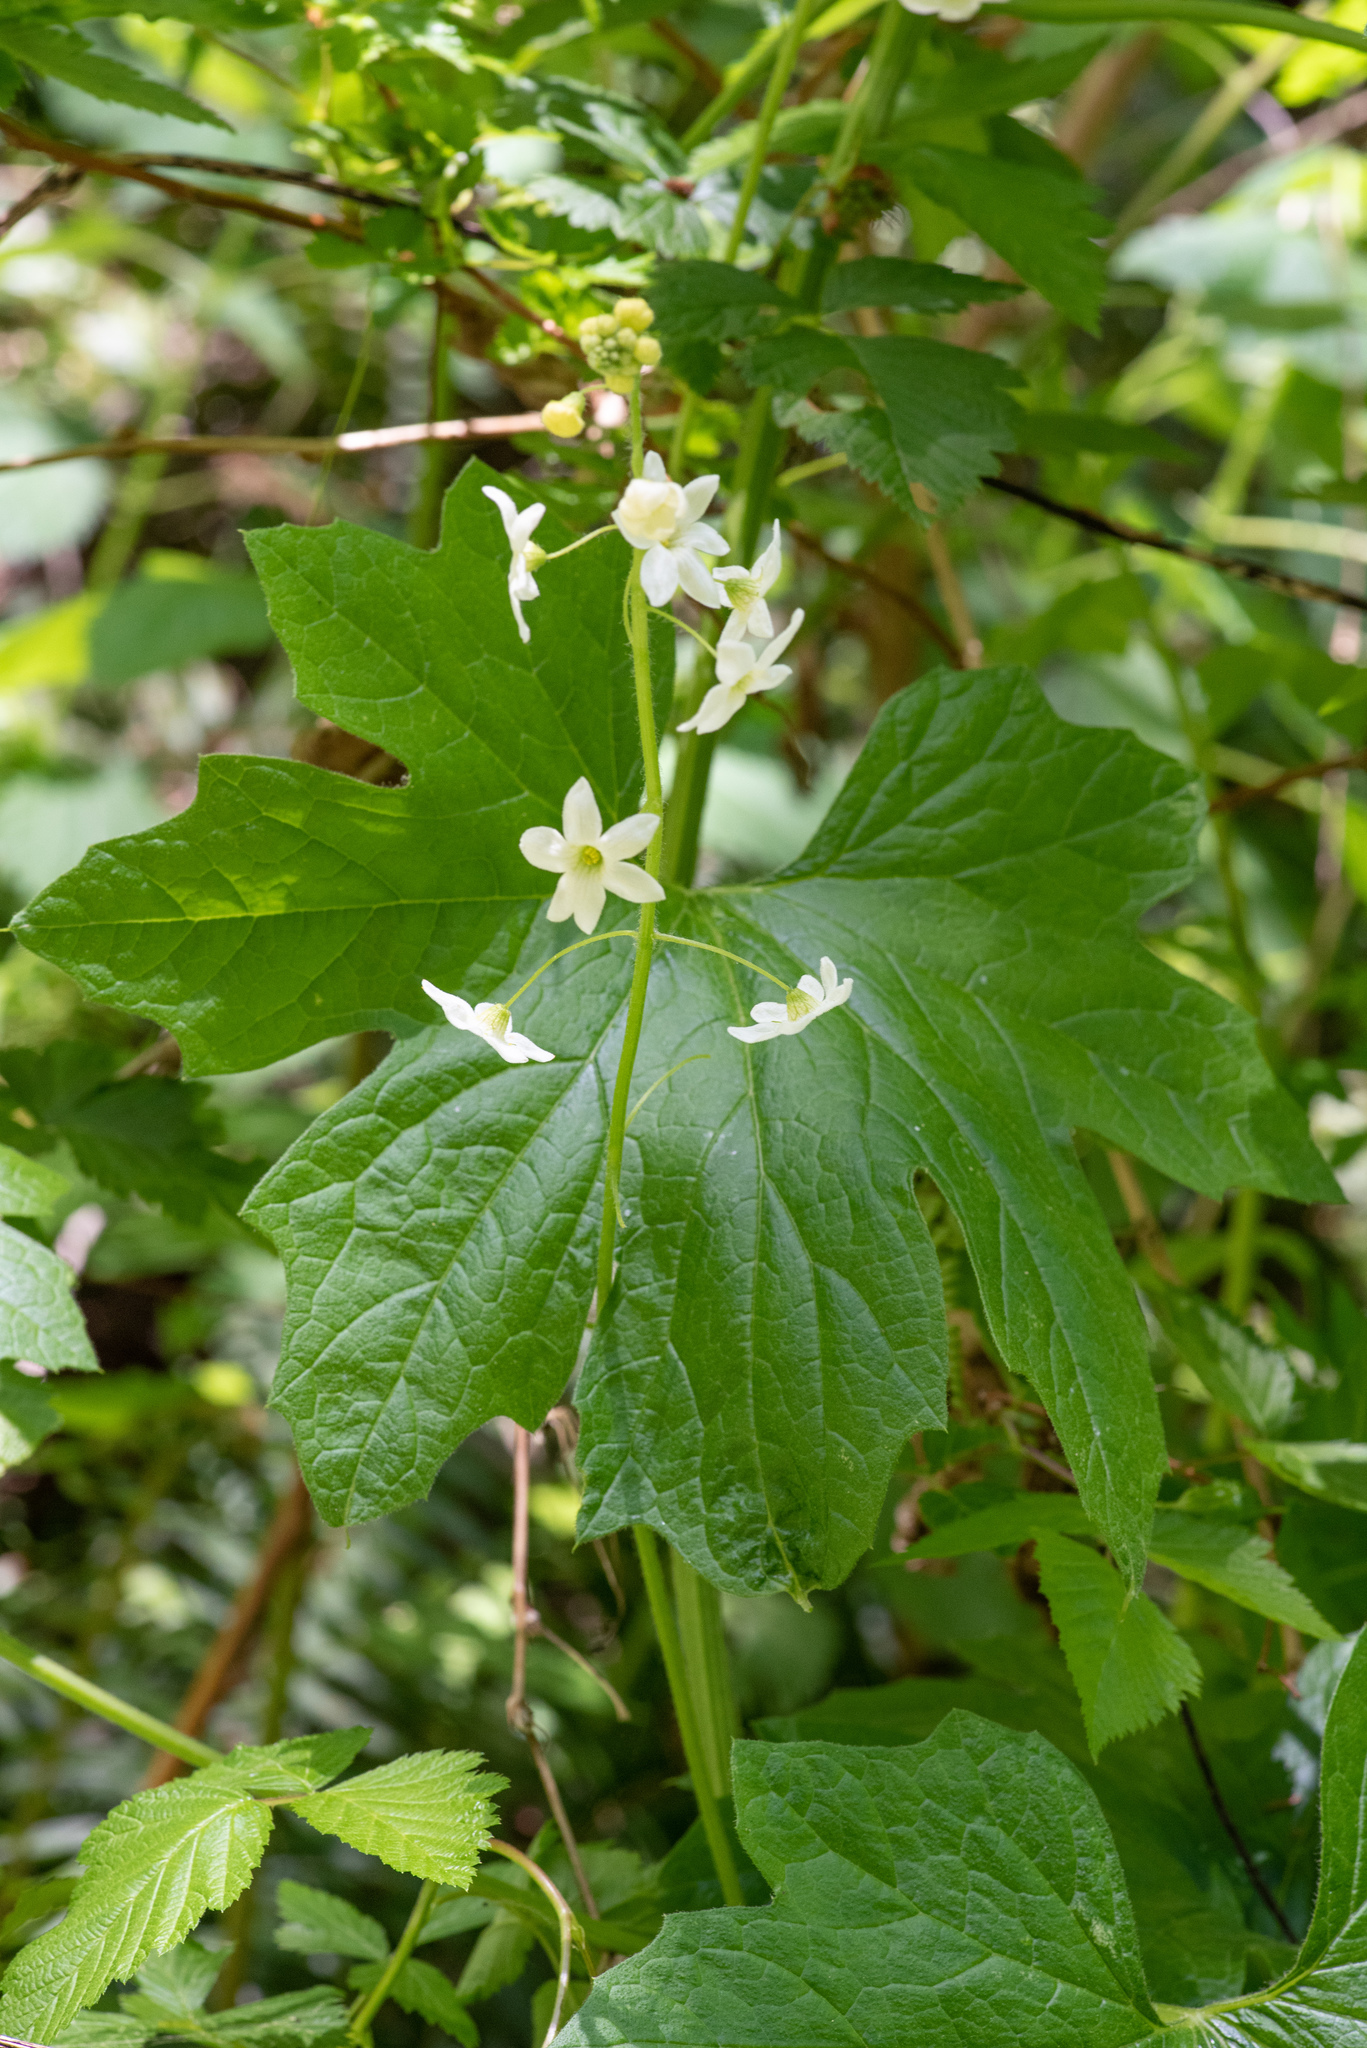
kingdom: Plantae
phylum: Tracheophyta
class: Magnoliopsida
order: Cucurbitales
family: Cucurbitaceae
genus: Marah
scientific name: Marah oregana
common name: Coastal manroot
